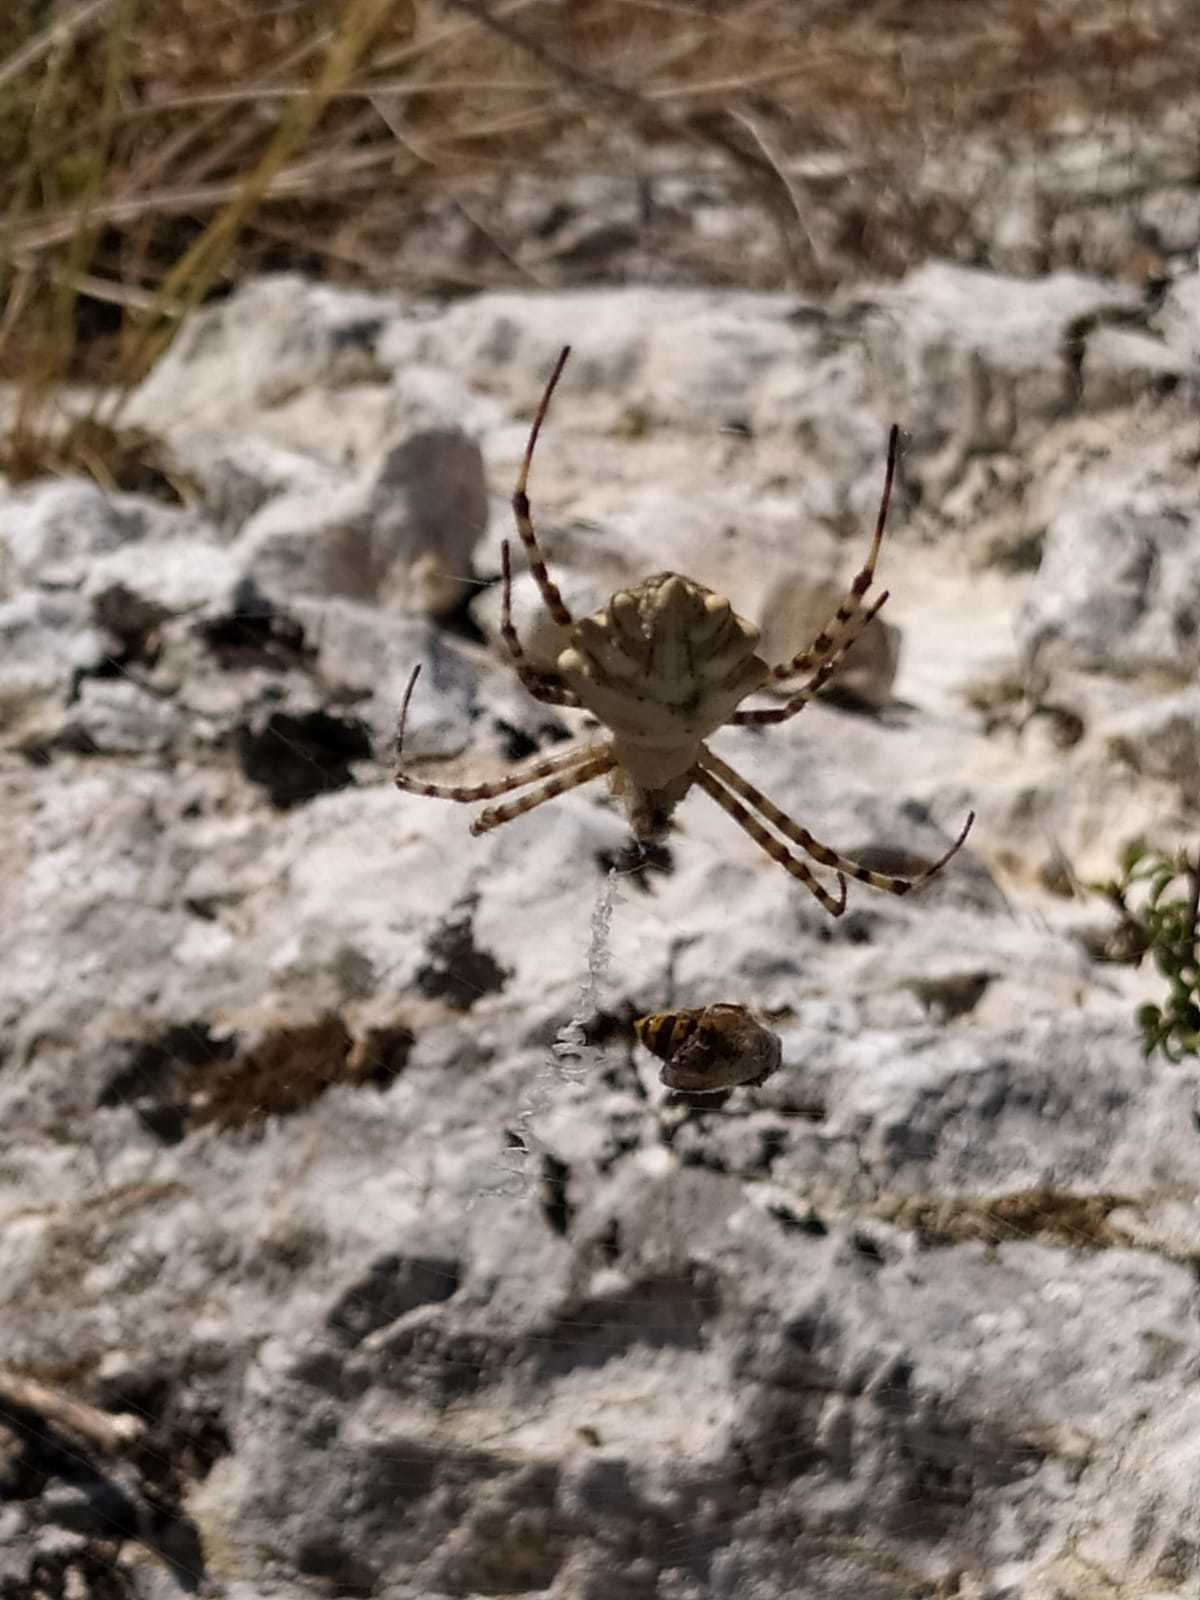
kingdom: Animalia
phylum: Arthropoda
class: Arachnida
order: Araneae
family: Araneidae
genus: Argiope
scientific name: Argiope lobata
